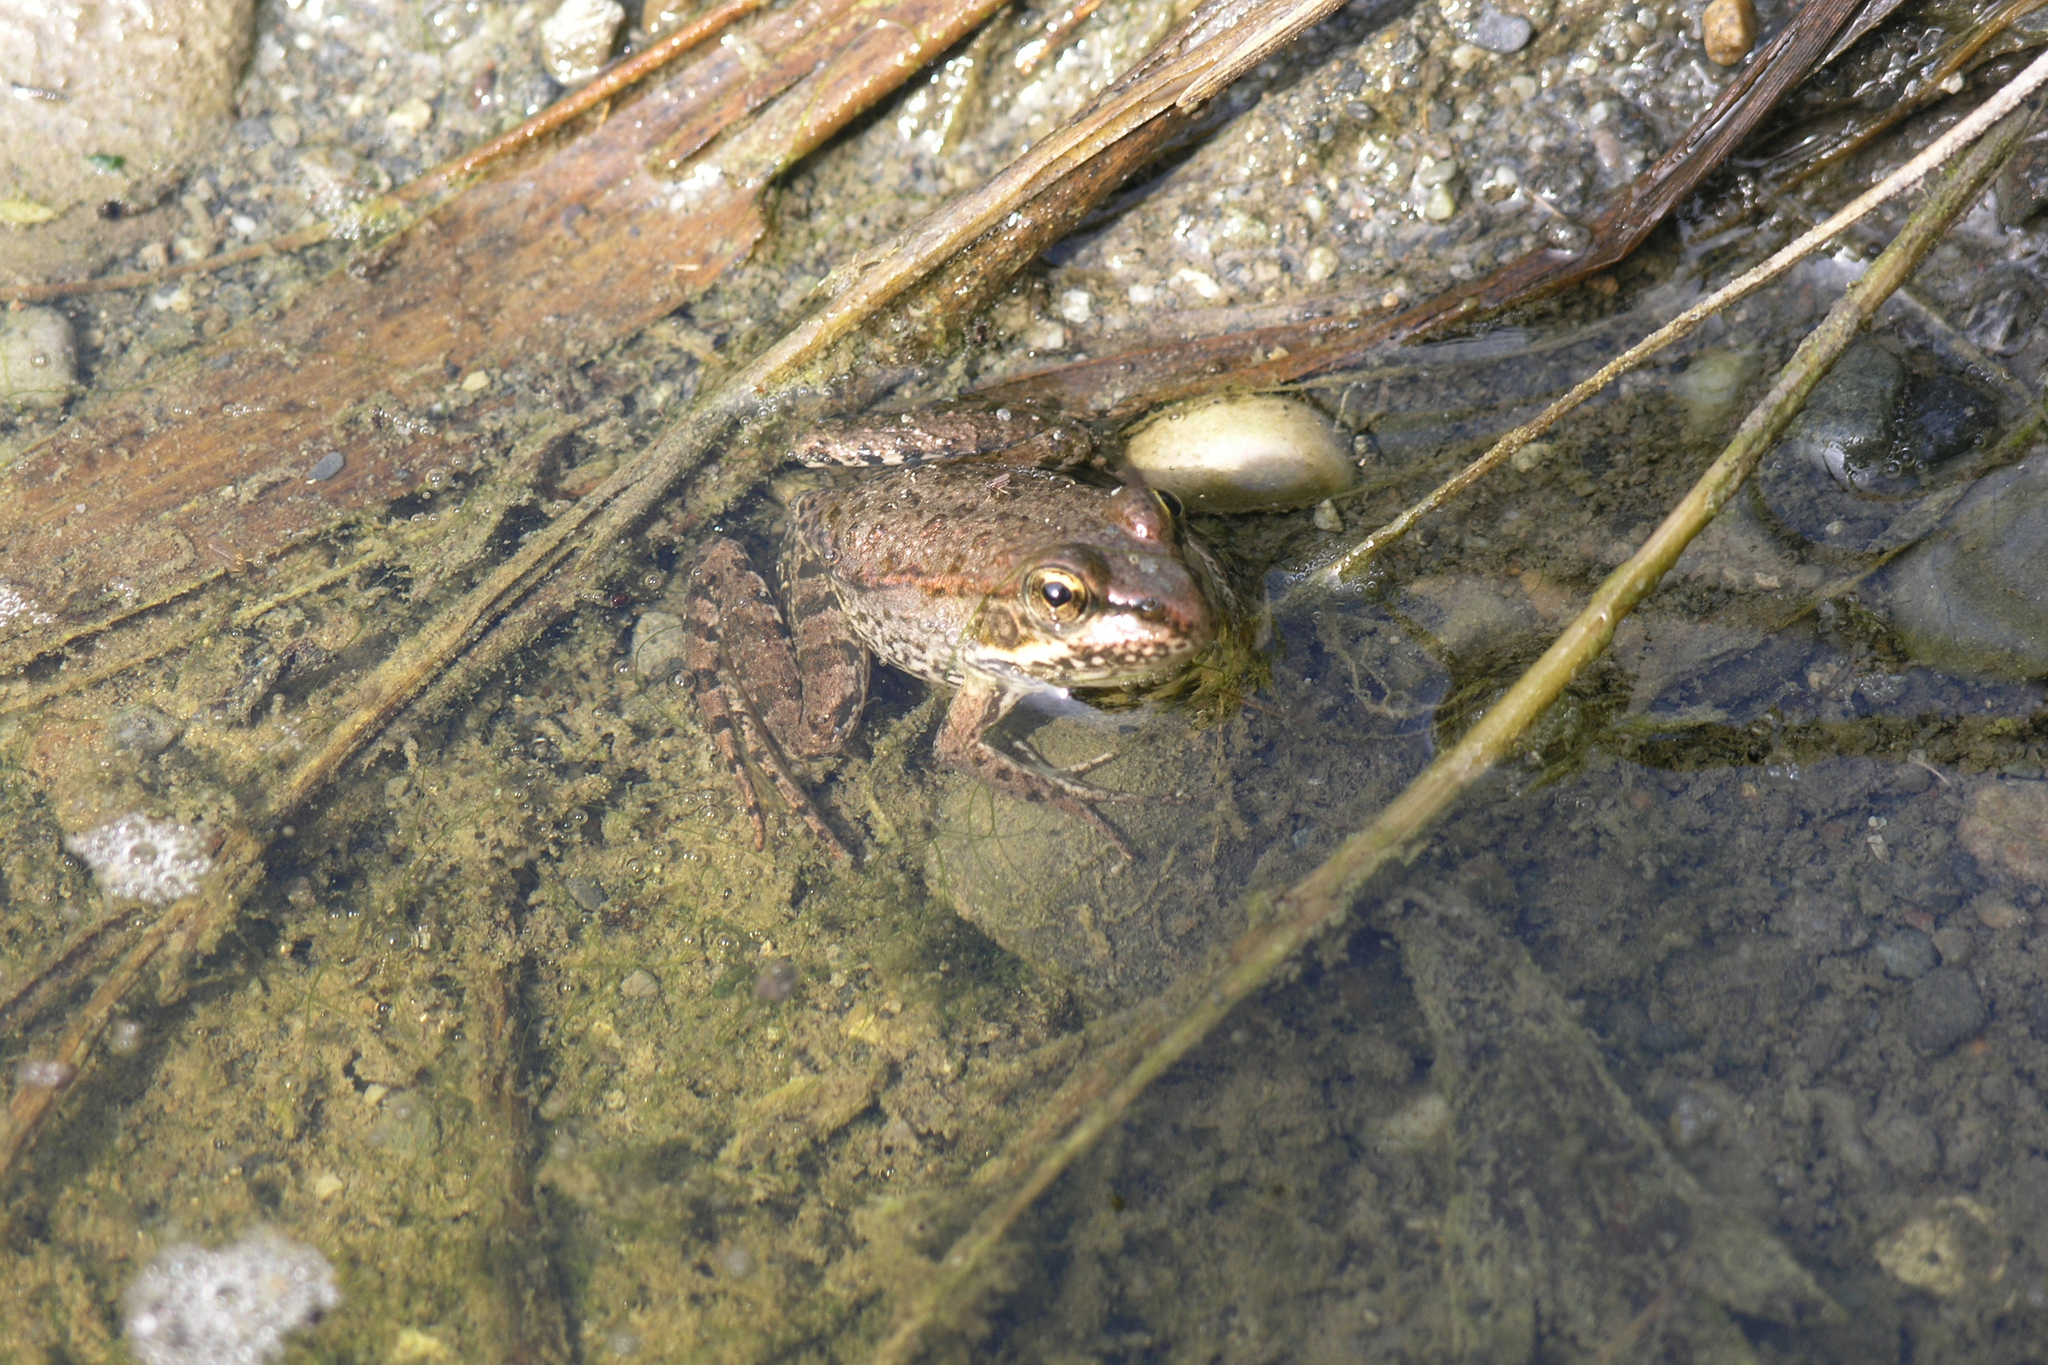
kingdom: Animalia
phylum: Chordata
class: Amphibia
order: Anura
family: Ranidae
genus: Pelophylax
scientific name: Pelophylax ridibundus
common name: Marsh frog
